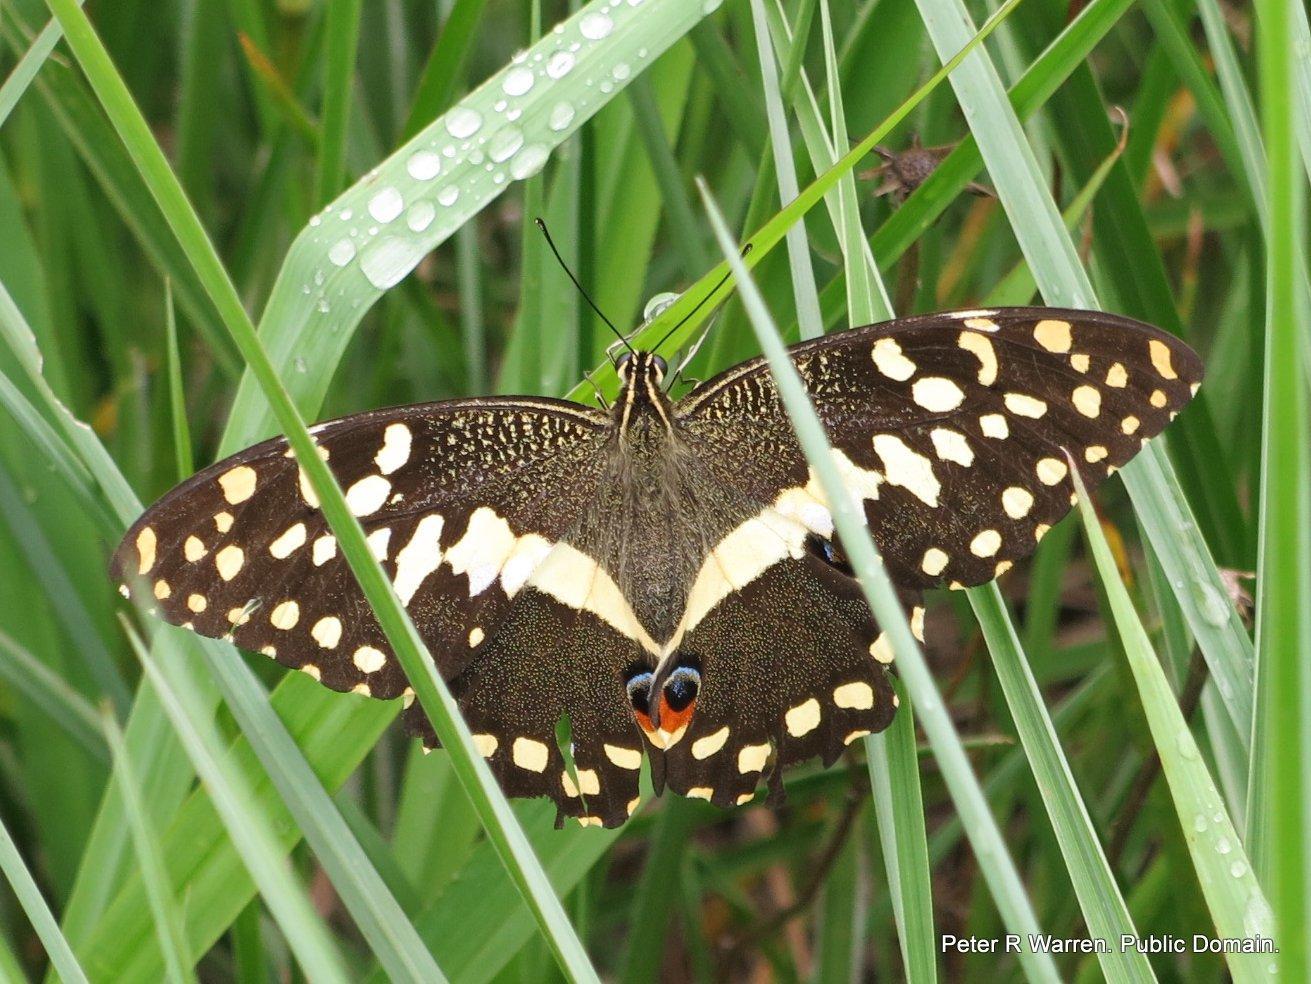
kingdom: Animalia
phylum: Arthropoda
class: Insecta
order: Lepidoptera
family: Papilionidae
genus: Papilio
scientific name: Papilio demodocus
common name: Christmas butterfly
